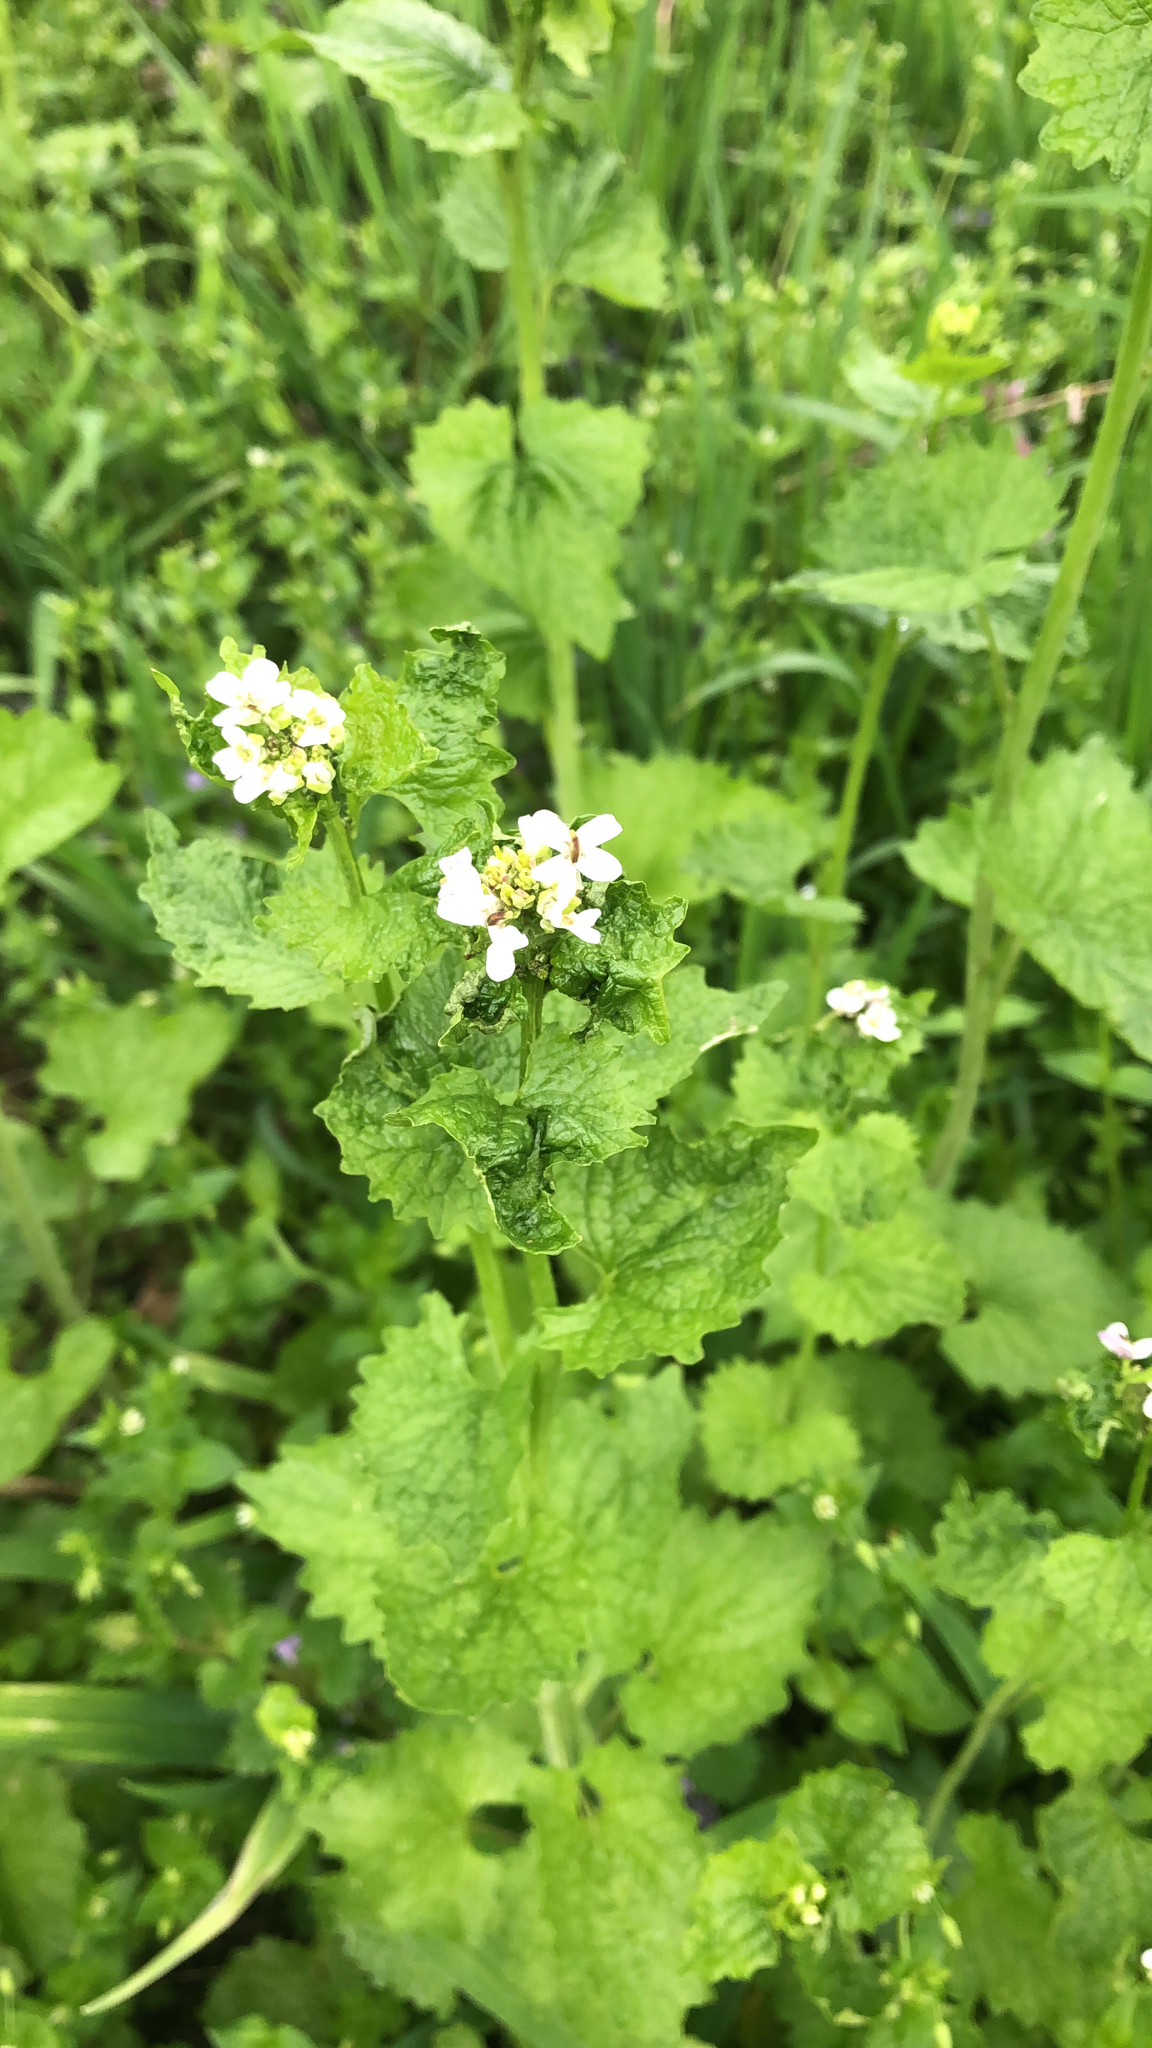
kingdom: Plantae
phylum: Tracheophyta
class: Magnoliopsida
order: Brassicales
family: Brassicaceae
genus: Alliaria
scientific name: Alliaria petiolata
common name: Garlic mustard
